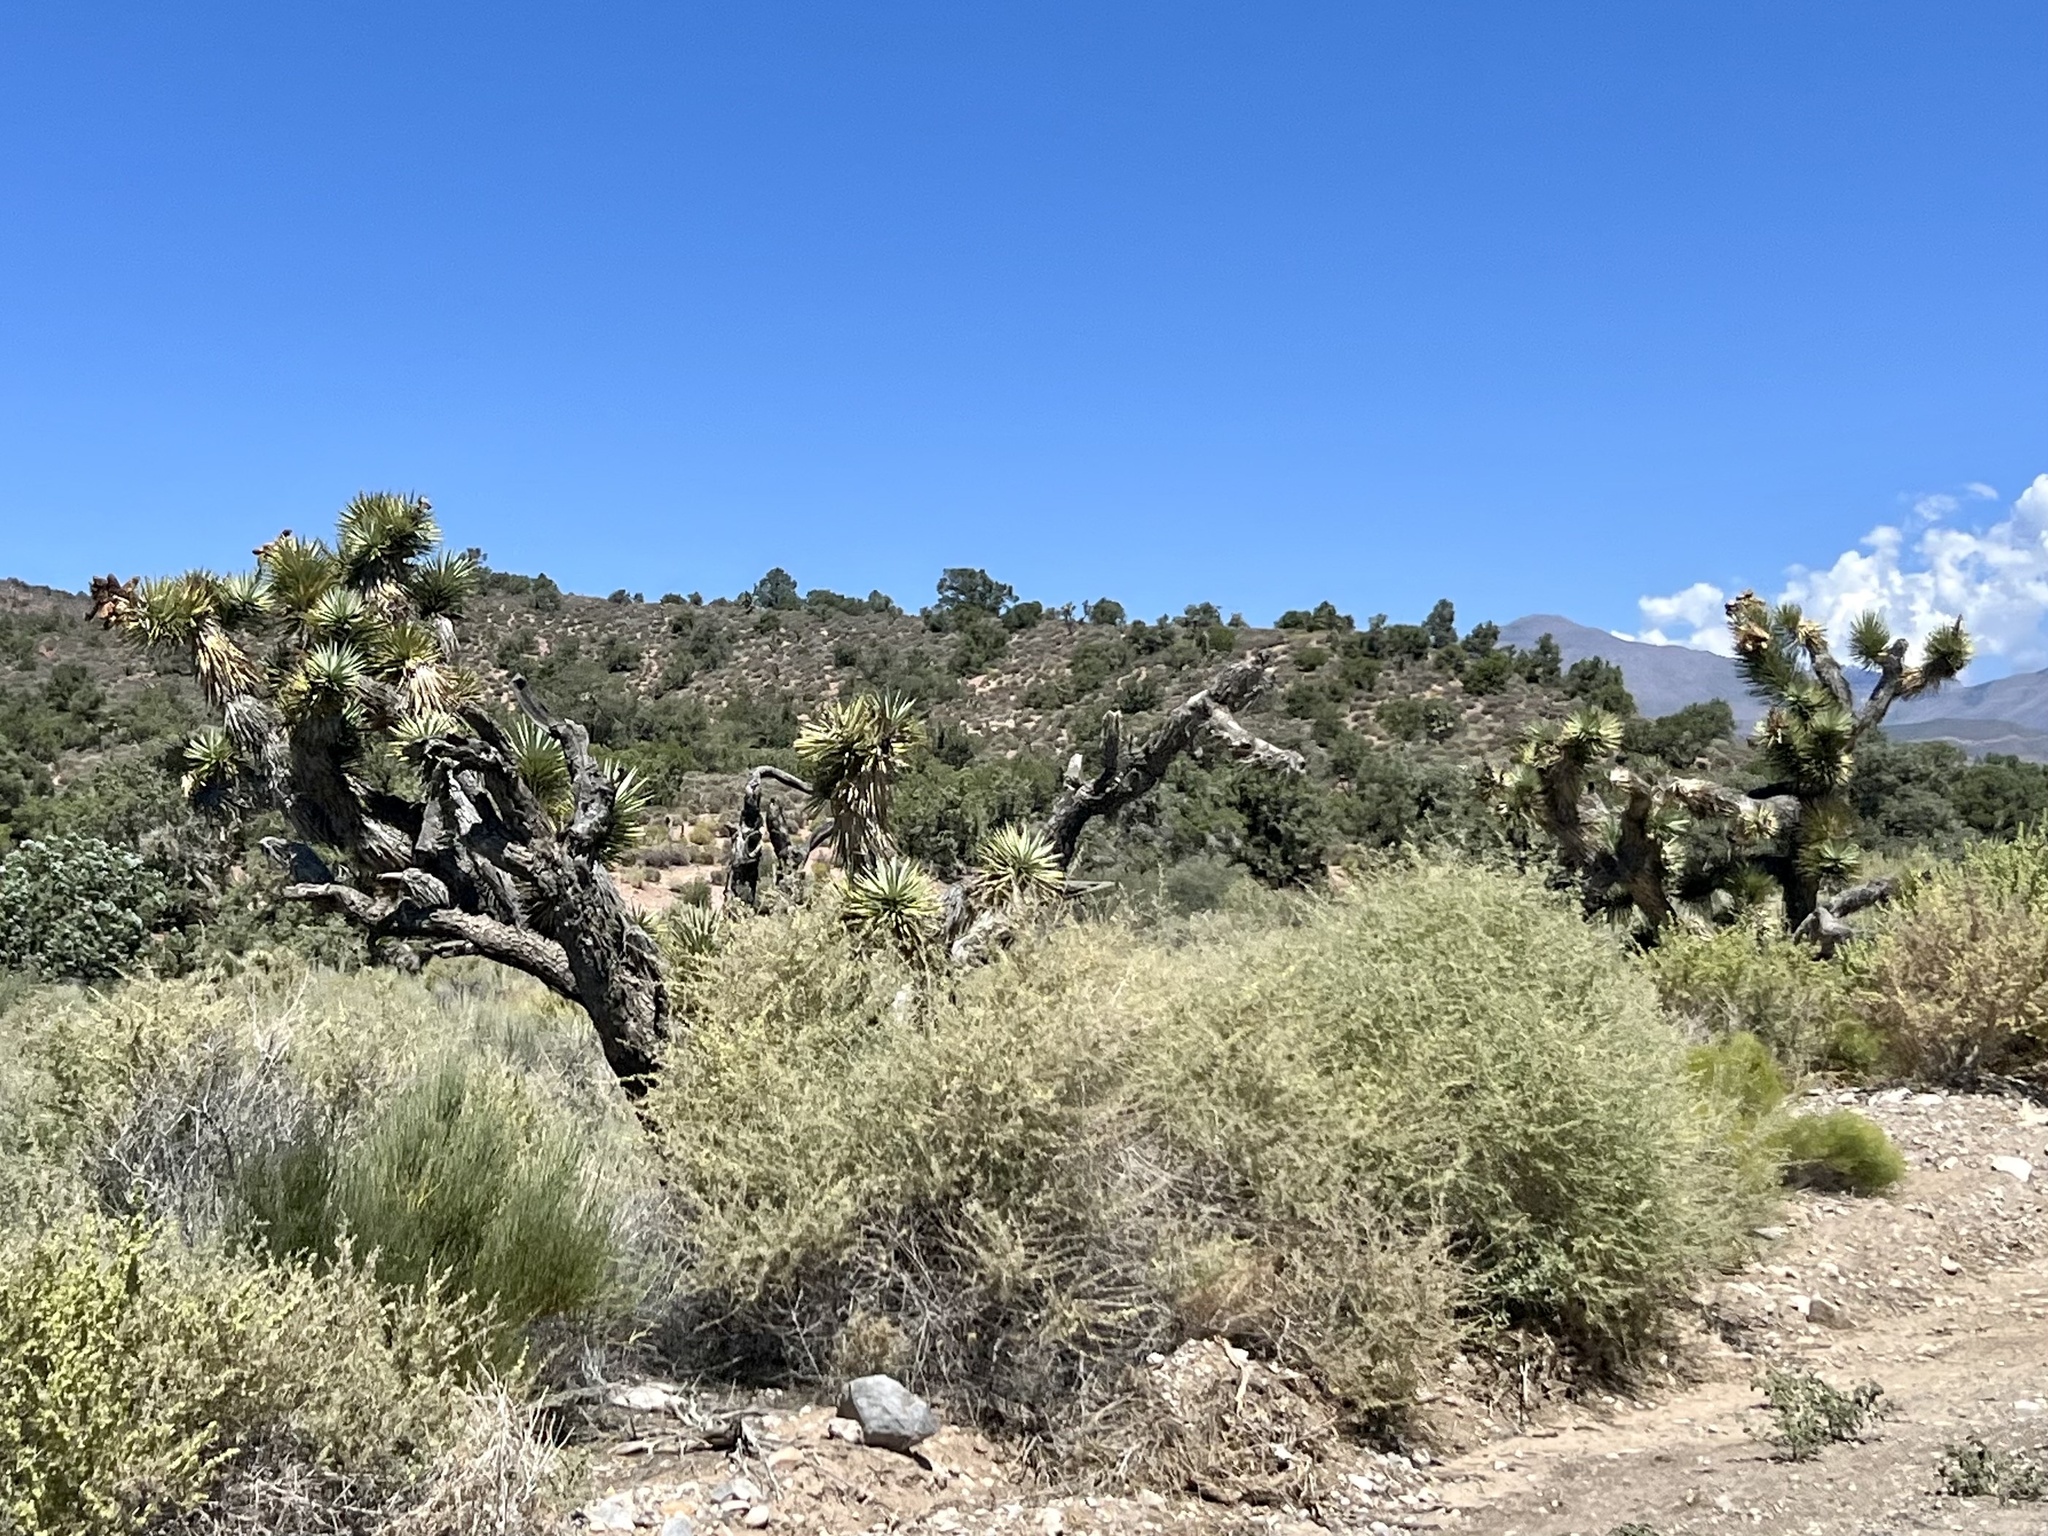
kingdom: Plantae
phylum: Tracheophyta
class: Liliopsida
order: Asparagales
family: Asparagaceae
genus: Yucca
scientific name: Yucca brevifolia
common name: Joshua tree
